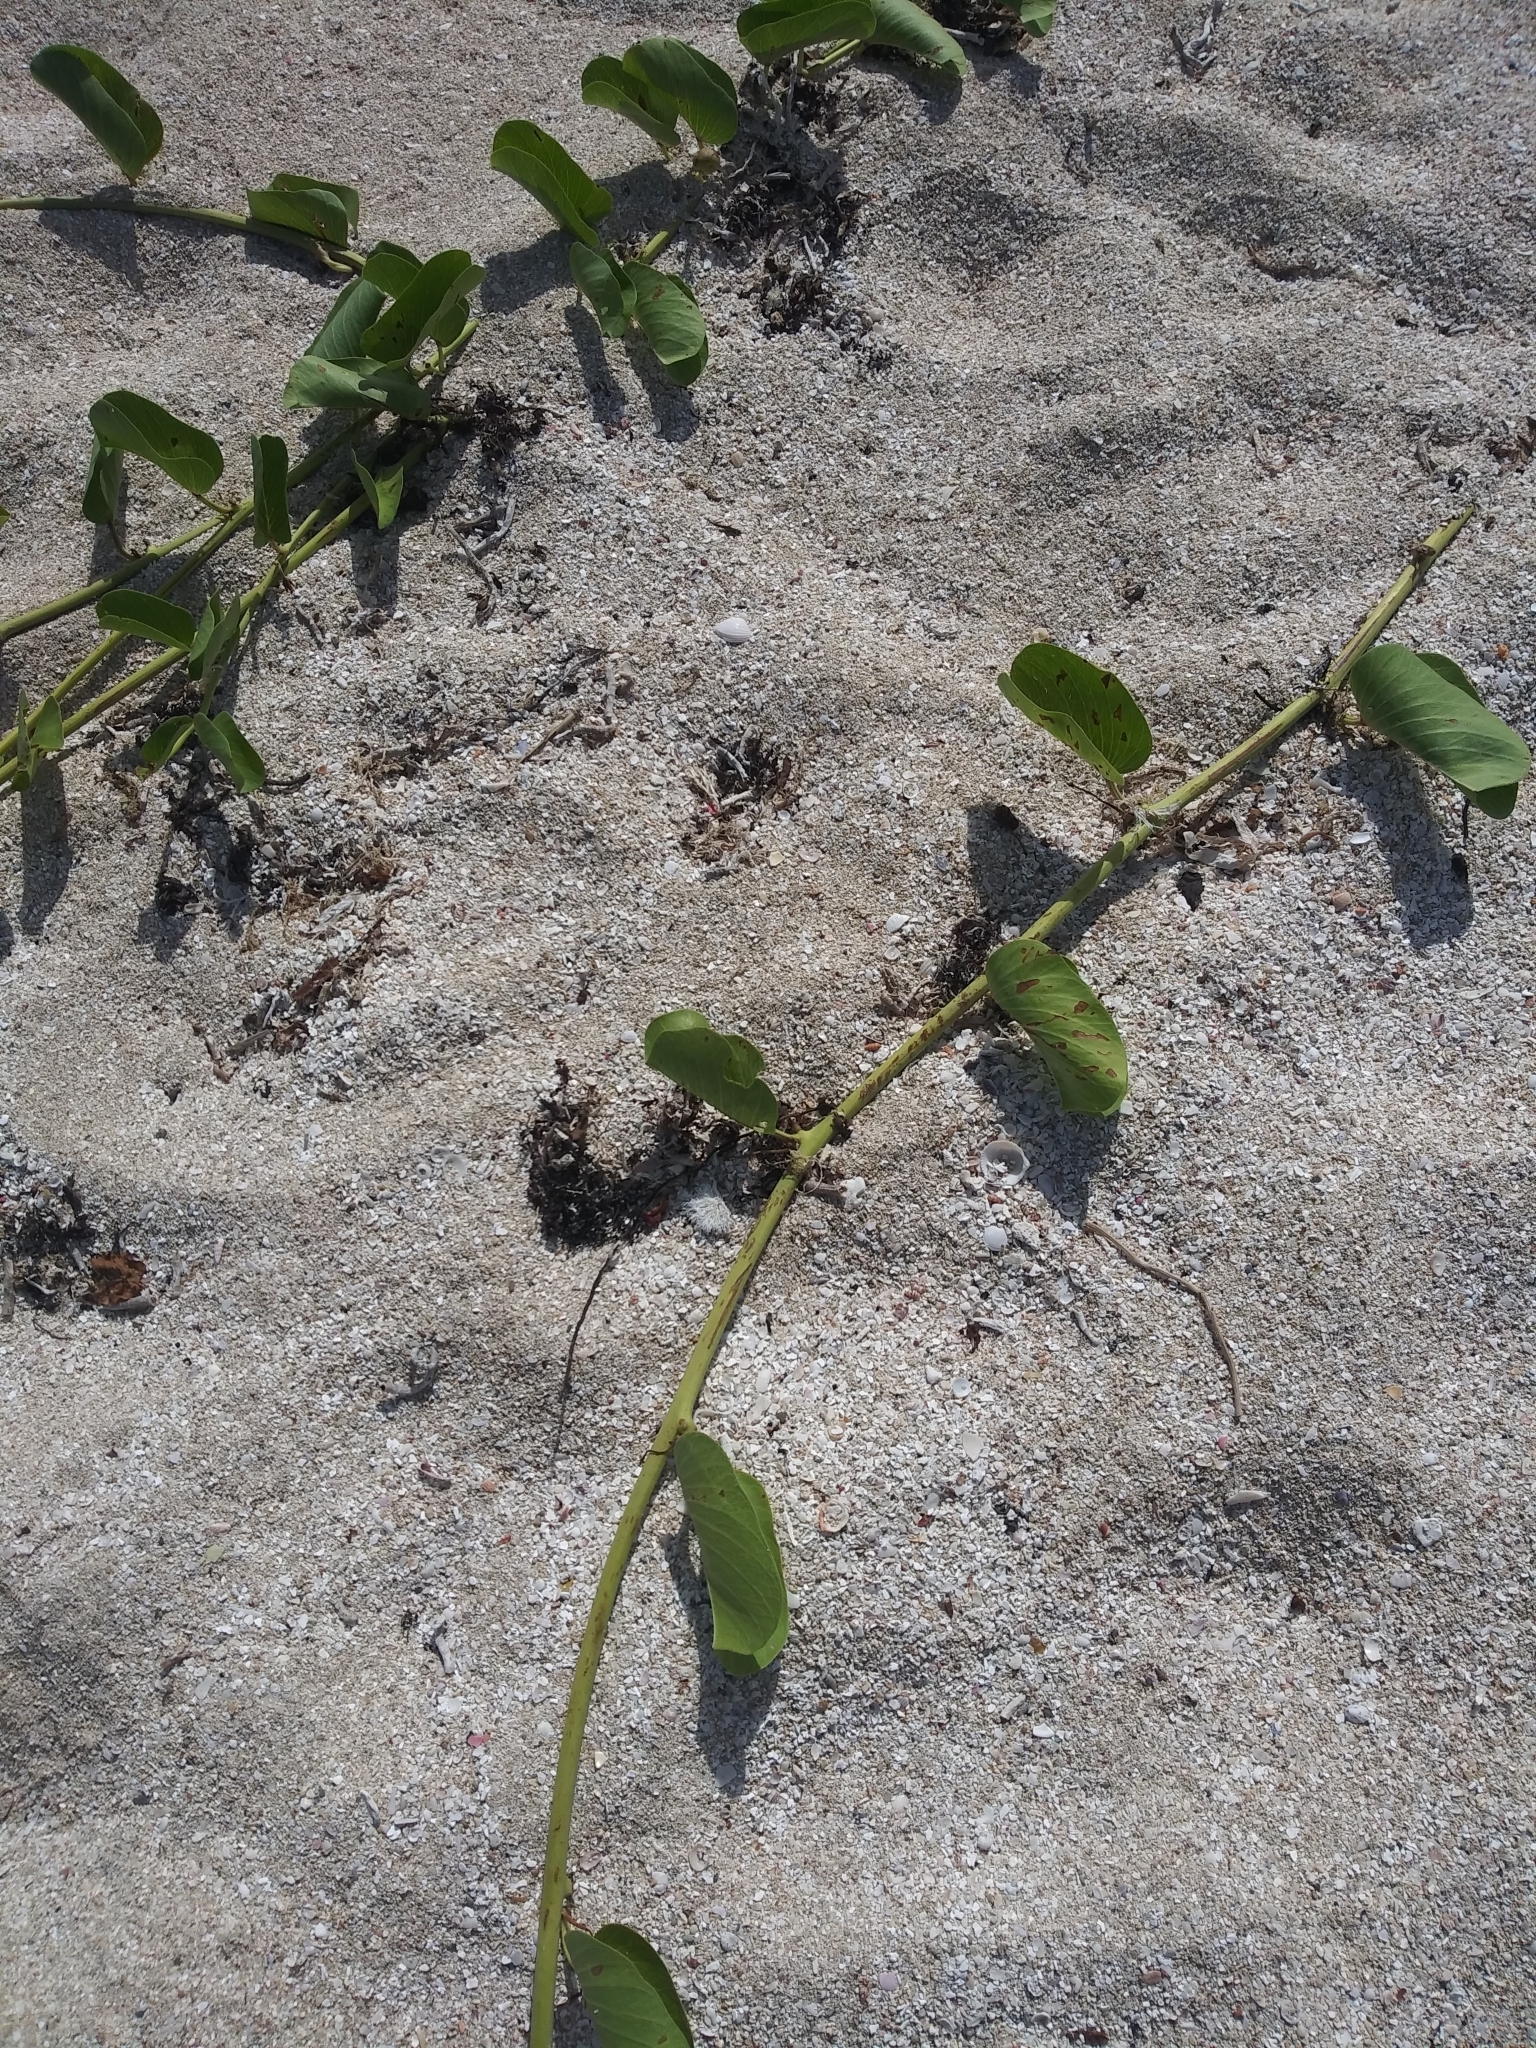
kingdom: Plantae
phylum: Tracheophyta
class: Magnoliopsida
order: Solanales
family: Convolvulaceae
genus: Ipomoea
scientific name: Ipomoea pes-caprae
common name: Beach morning glory
